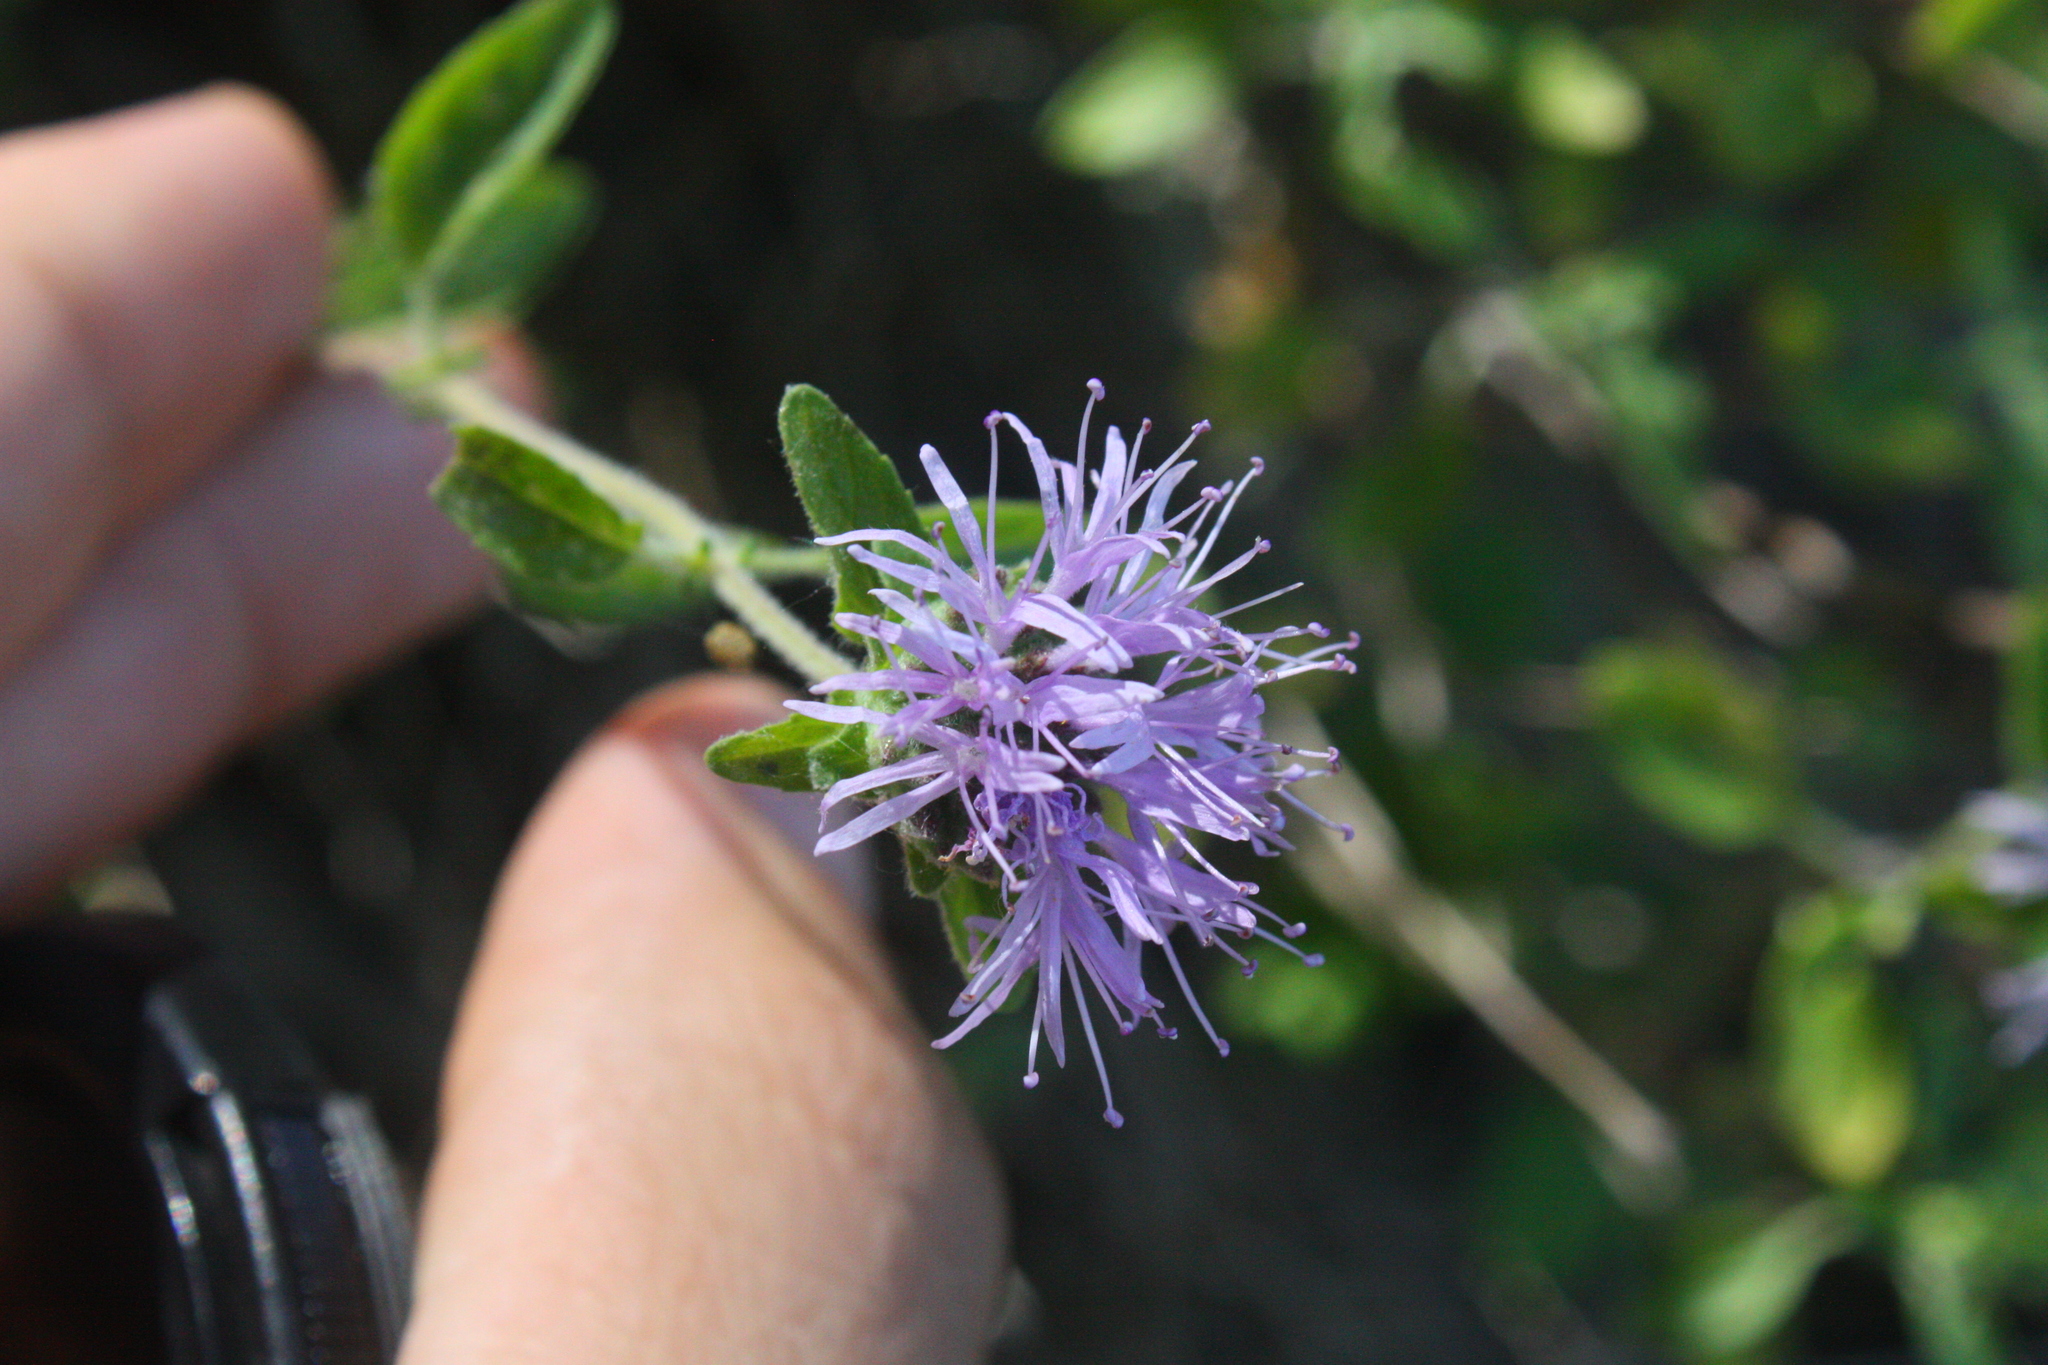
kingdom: Plantae
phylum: Tracheophyta
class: Magnoliopsida
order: Lamiales
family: Lamiaceae
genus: Monardella
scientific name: Monardella odoratissima
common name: Pacific monardella
